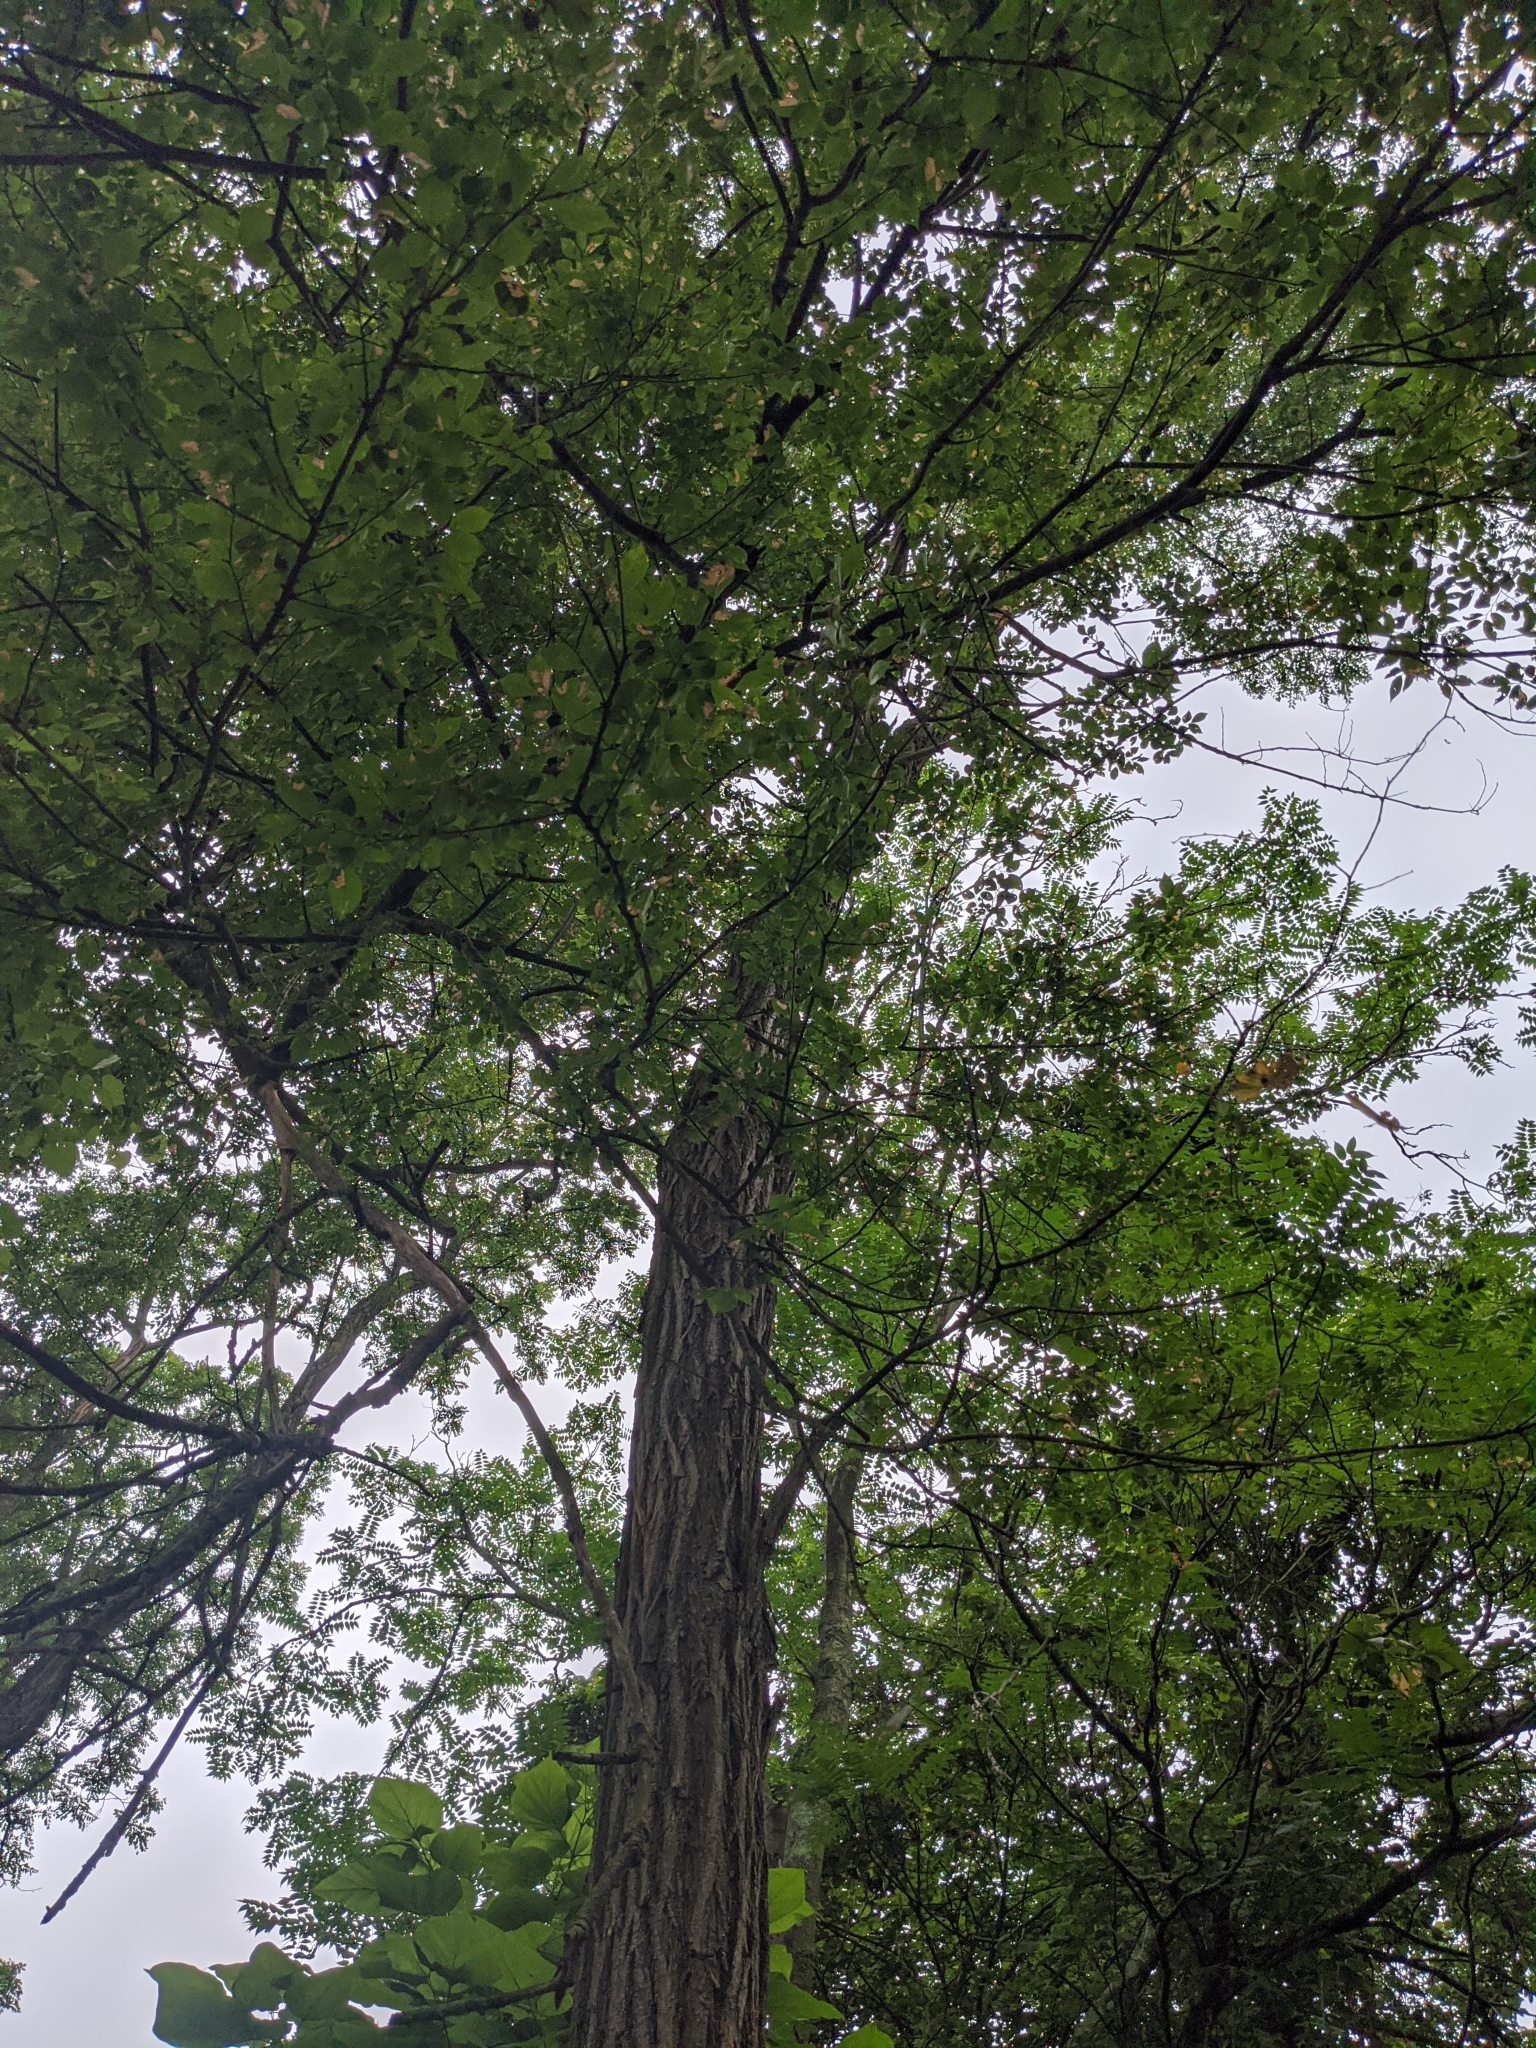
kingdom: Plantae
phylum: Tracheophyta
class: Magnoliopsida
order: Fabales
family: Fabaceae
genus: Robinia
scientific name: Robinia pseudoacacia
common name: Black locust
